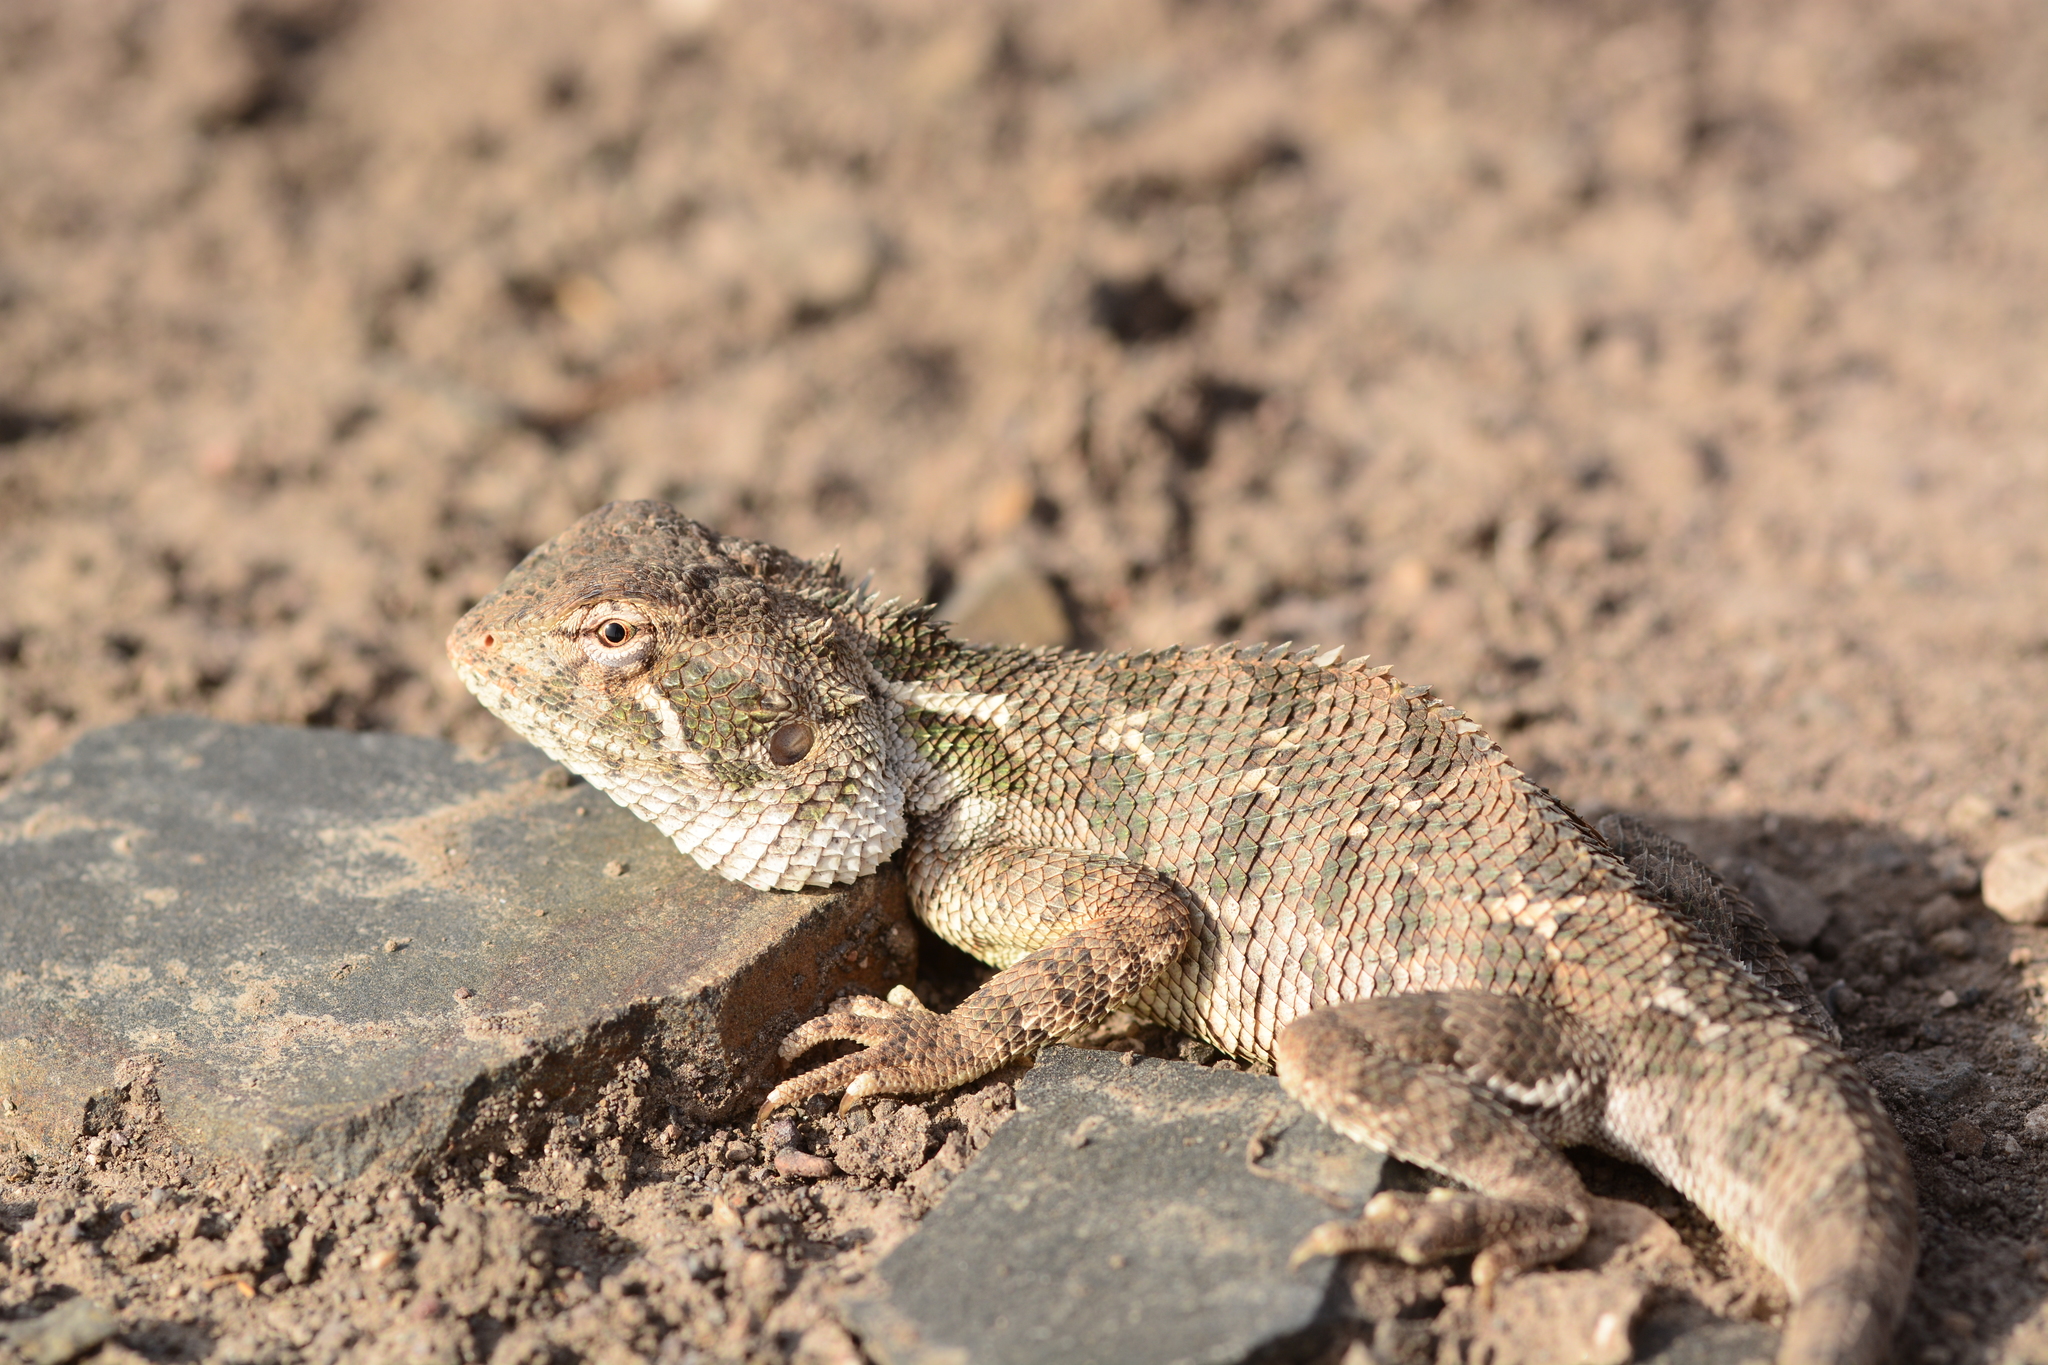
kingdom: Animalia
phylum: Chordata
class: Squamata
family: Agamidae
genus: Calotes
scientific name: Calotes minor
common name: Dwarf rock agama
